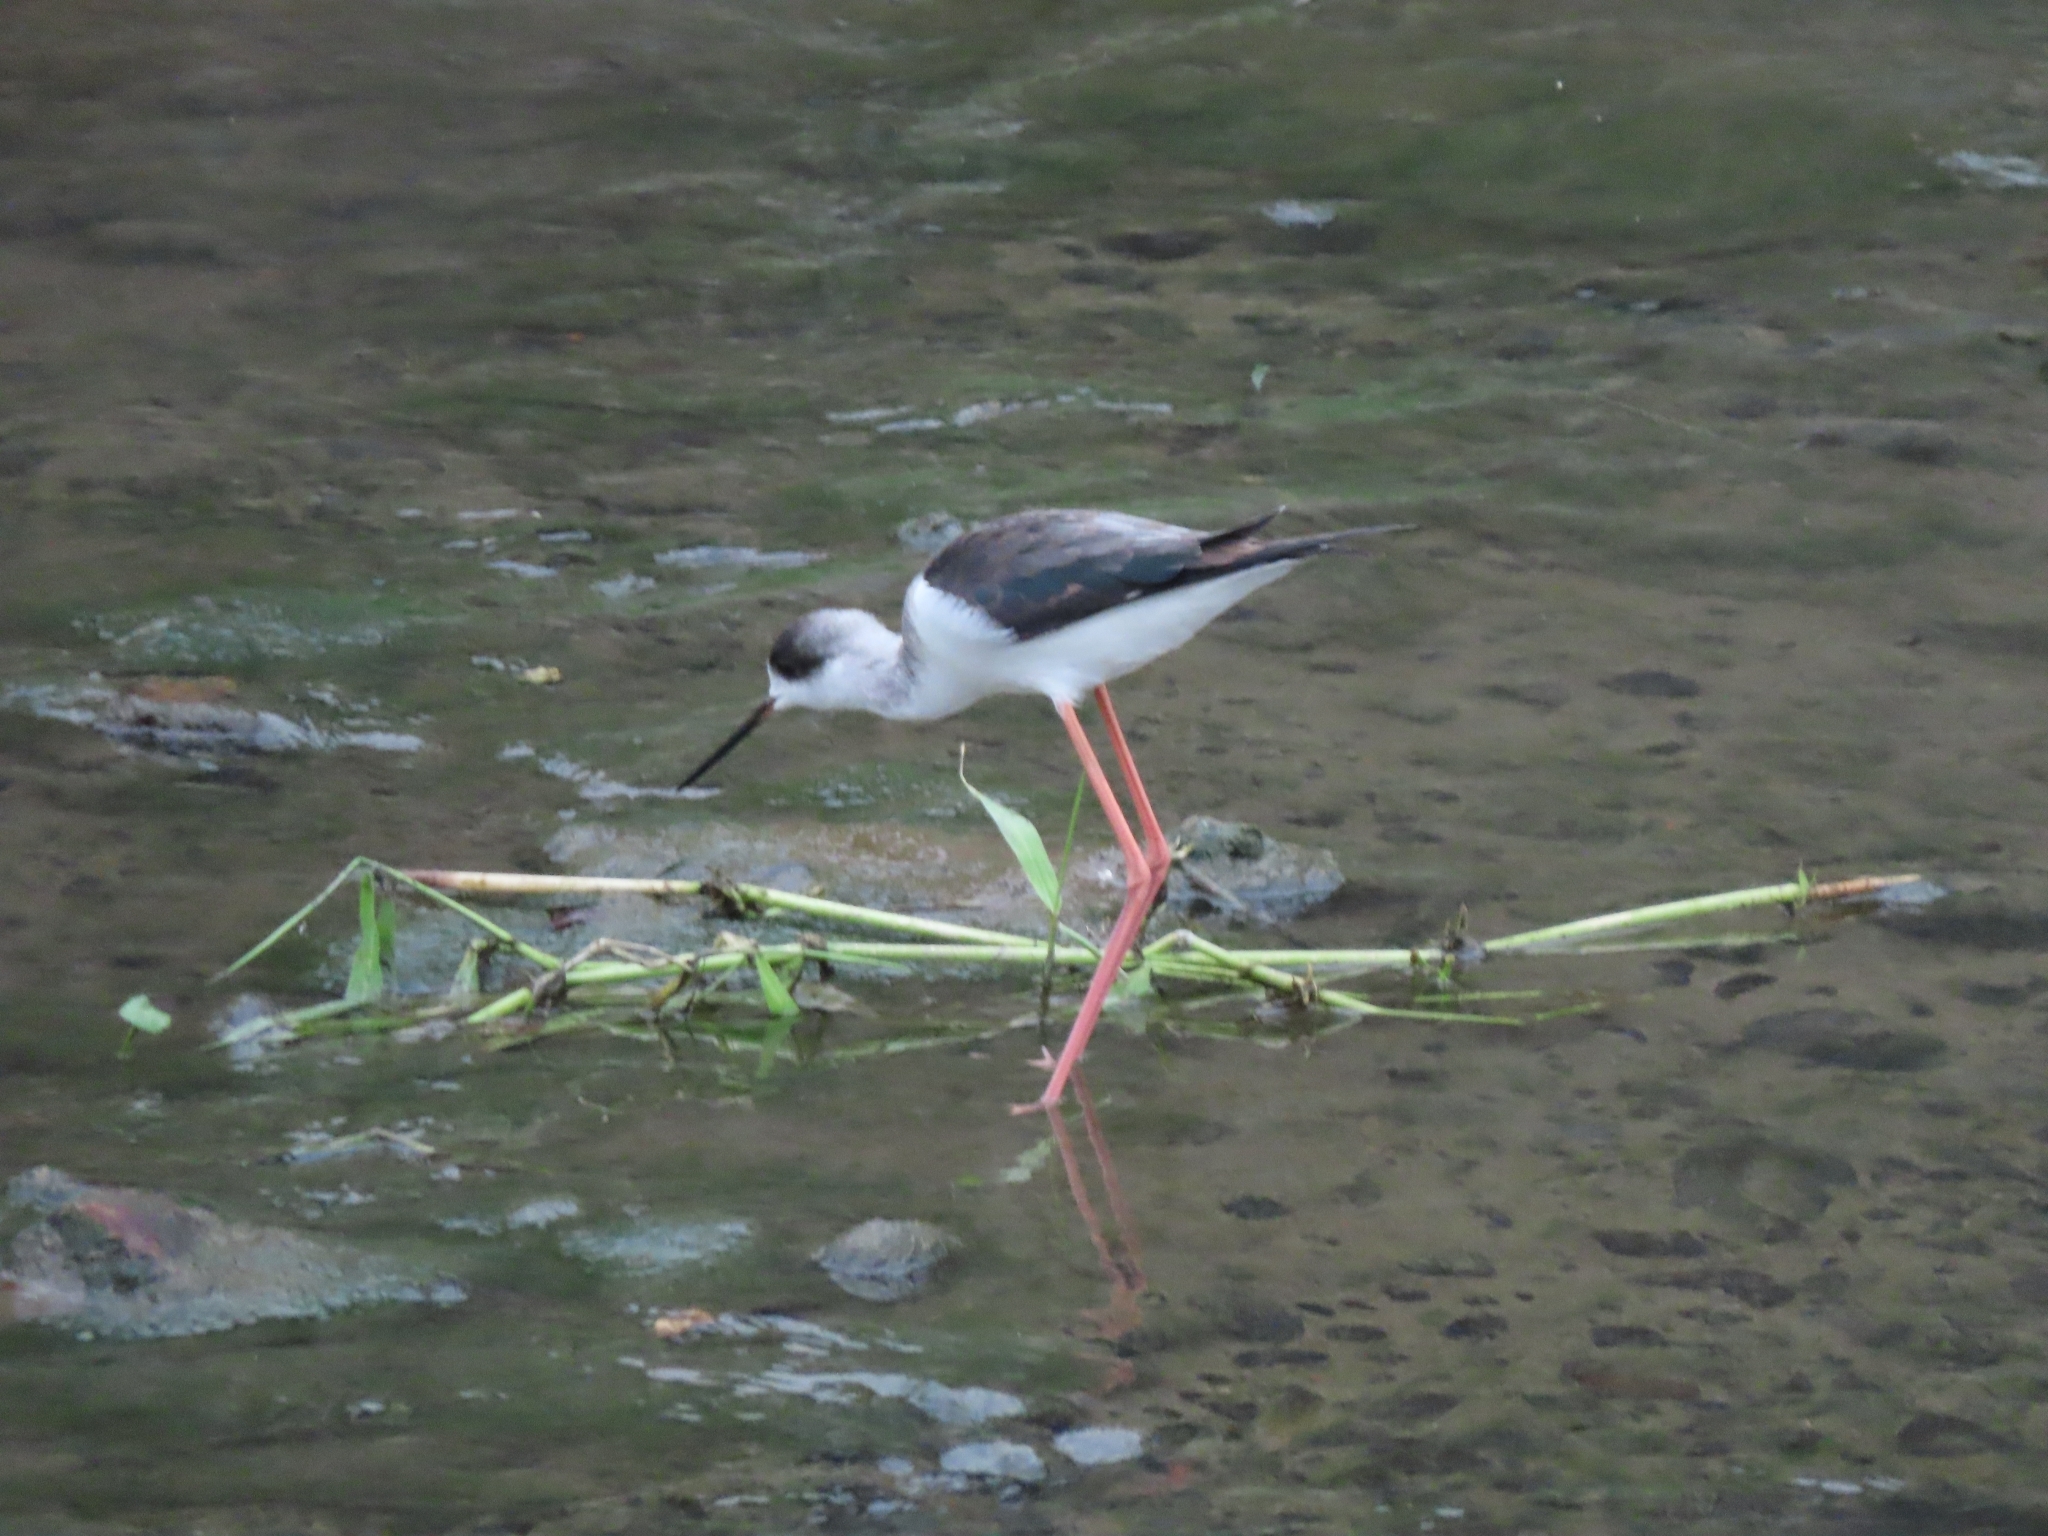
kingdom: Animalia
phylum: Chordata
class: Aves
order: Charadriiformes
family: Recurvirostridae
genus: Himantopus
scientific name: Himantopus himantopus
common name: Black-winged stilt
